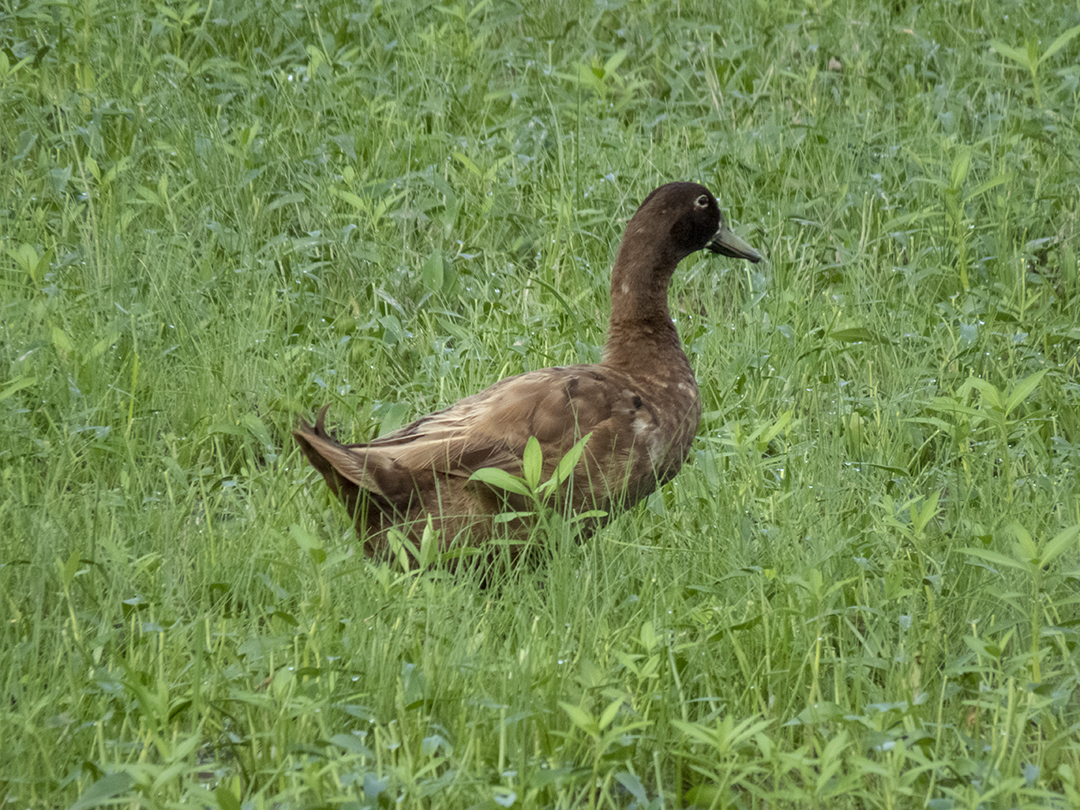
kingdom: Animalia
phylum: Chordata
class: Aves
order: Anseriformes
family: Anatidae
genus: Anas
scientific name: Anas platyrhynchos
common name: Mallard
